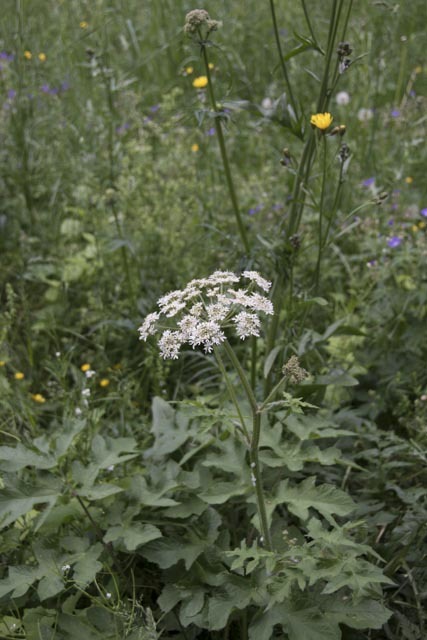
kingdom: Plantae
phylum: Tracheophyta
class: Magnoliopsida
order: Apiales
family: Apiaceae
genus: Heracleum
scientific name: Heracleum sphondylium
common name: Hogweed
